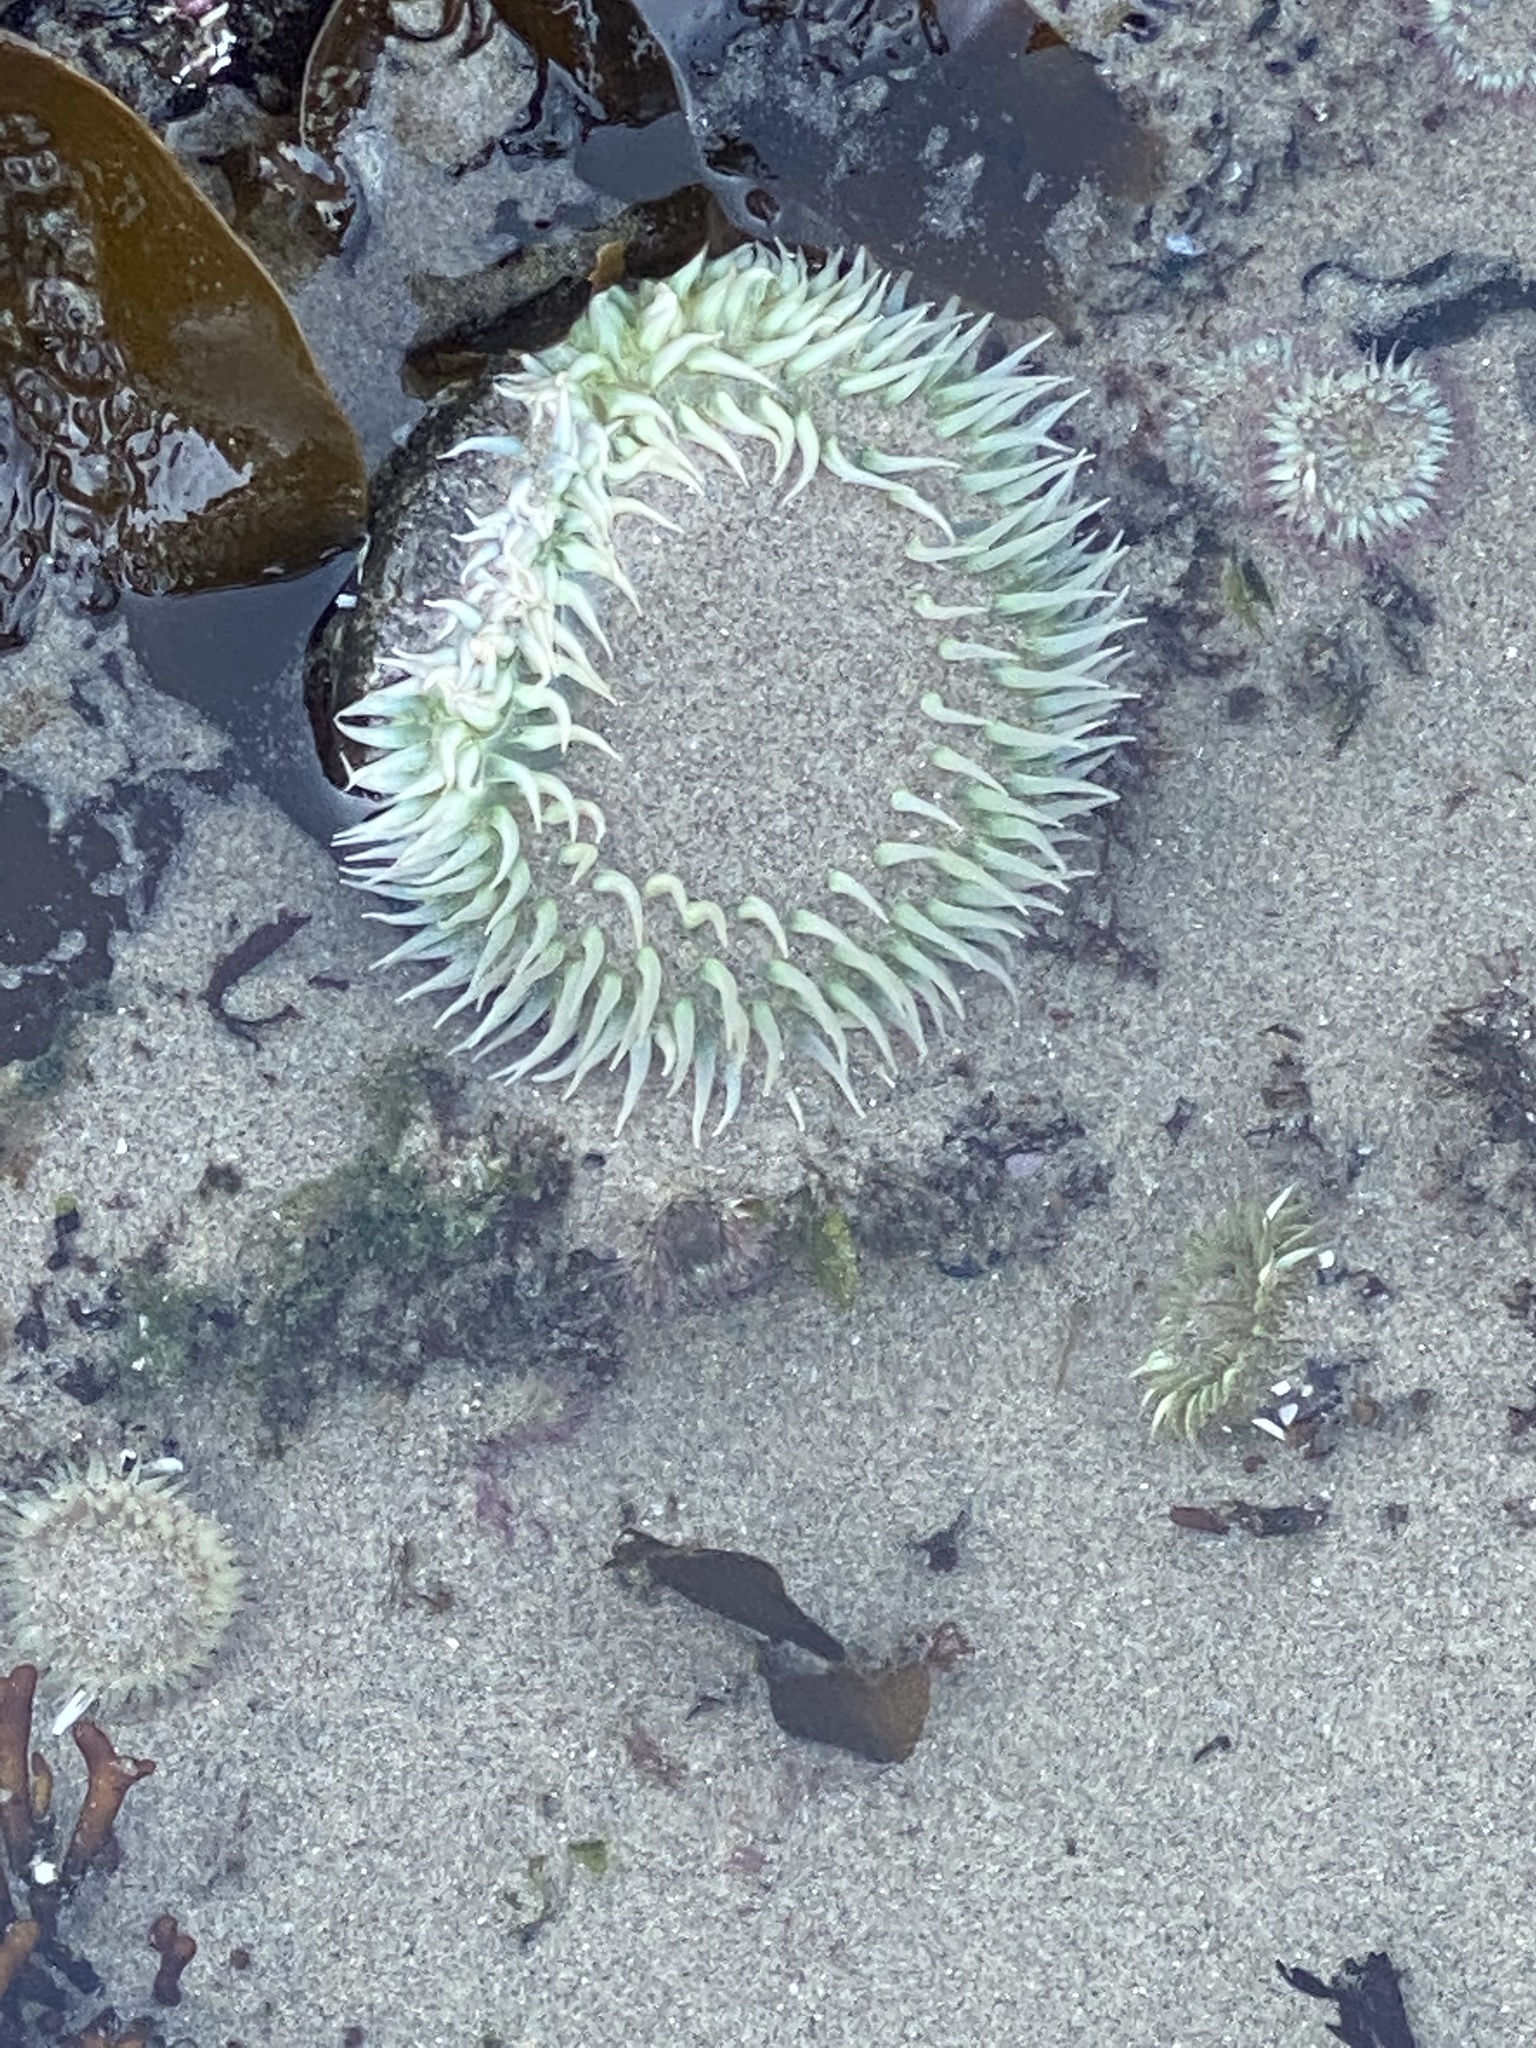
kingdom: Animalia
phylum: Cnidaria
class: Anthozoa
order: Actiniaria
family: Actiniidae
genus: Anthopleura
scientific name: Anthopleura xanthogrammica
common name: Giant green anemone
